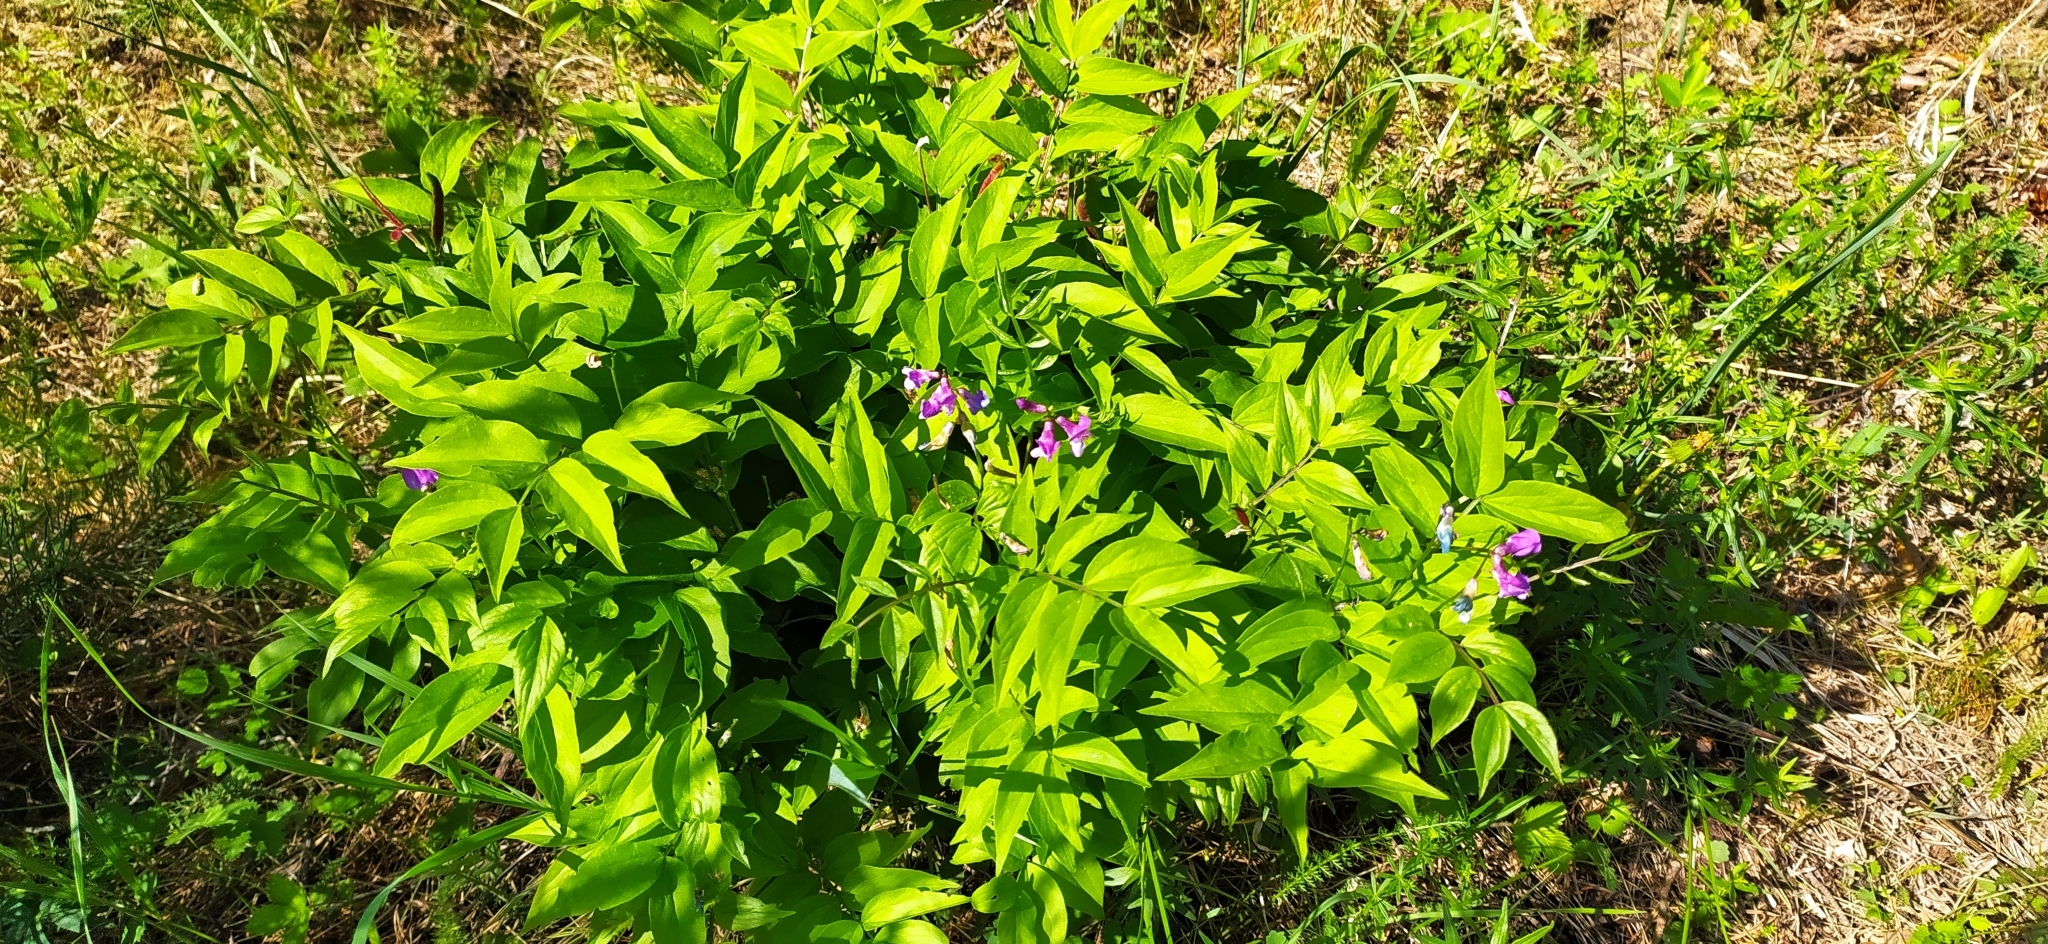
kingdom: Plantae
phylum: Tracheophyta
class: Magnoliopsida
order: Fabales
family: Fabaceae
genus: Lathyrus
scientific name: Lathyrus vernus
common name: Spring pea
